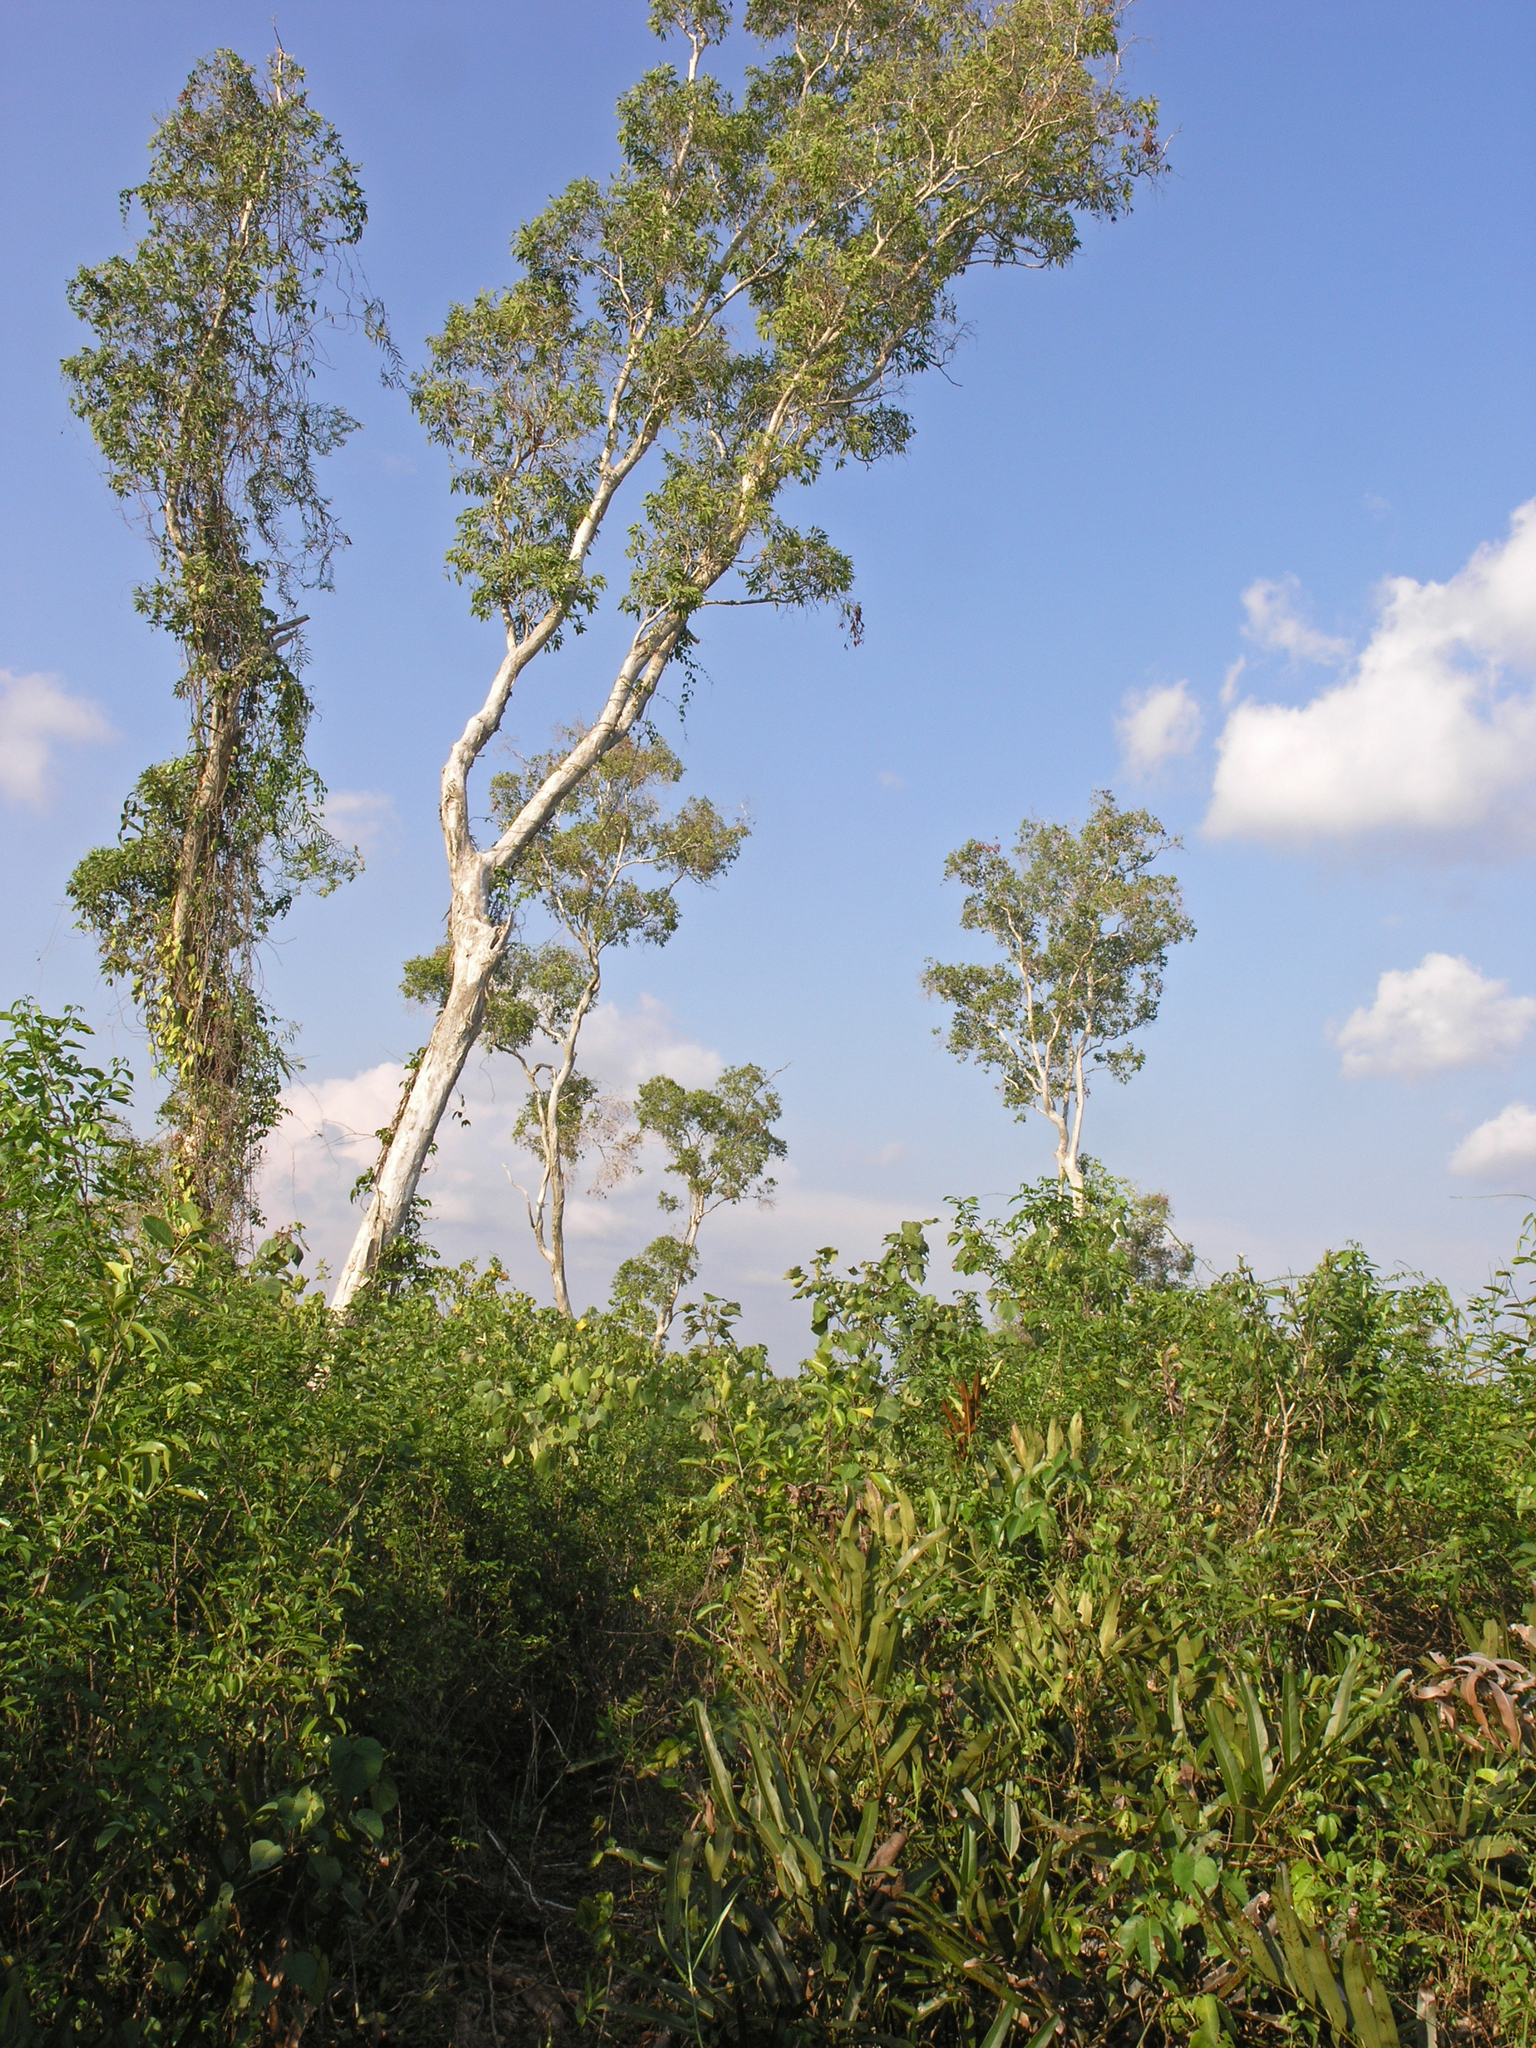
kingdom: Plantae
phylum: Tracheophyta
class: Magnoliopsida
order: Myrtales
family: Myrtaceae
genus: Melaleuca
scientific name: Melaleuca cajuputi
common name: Cajuput
